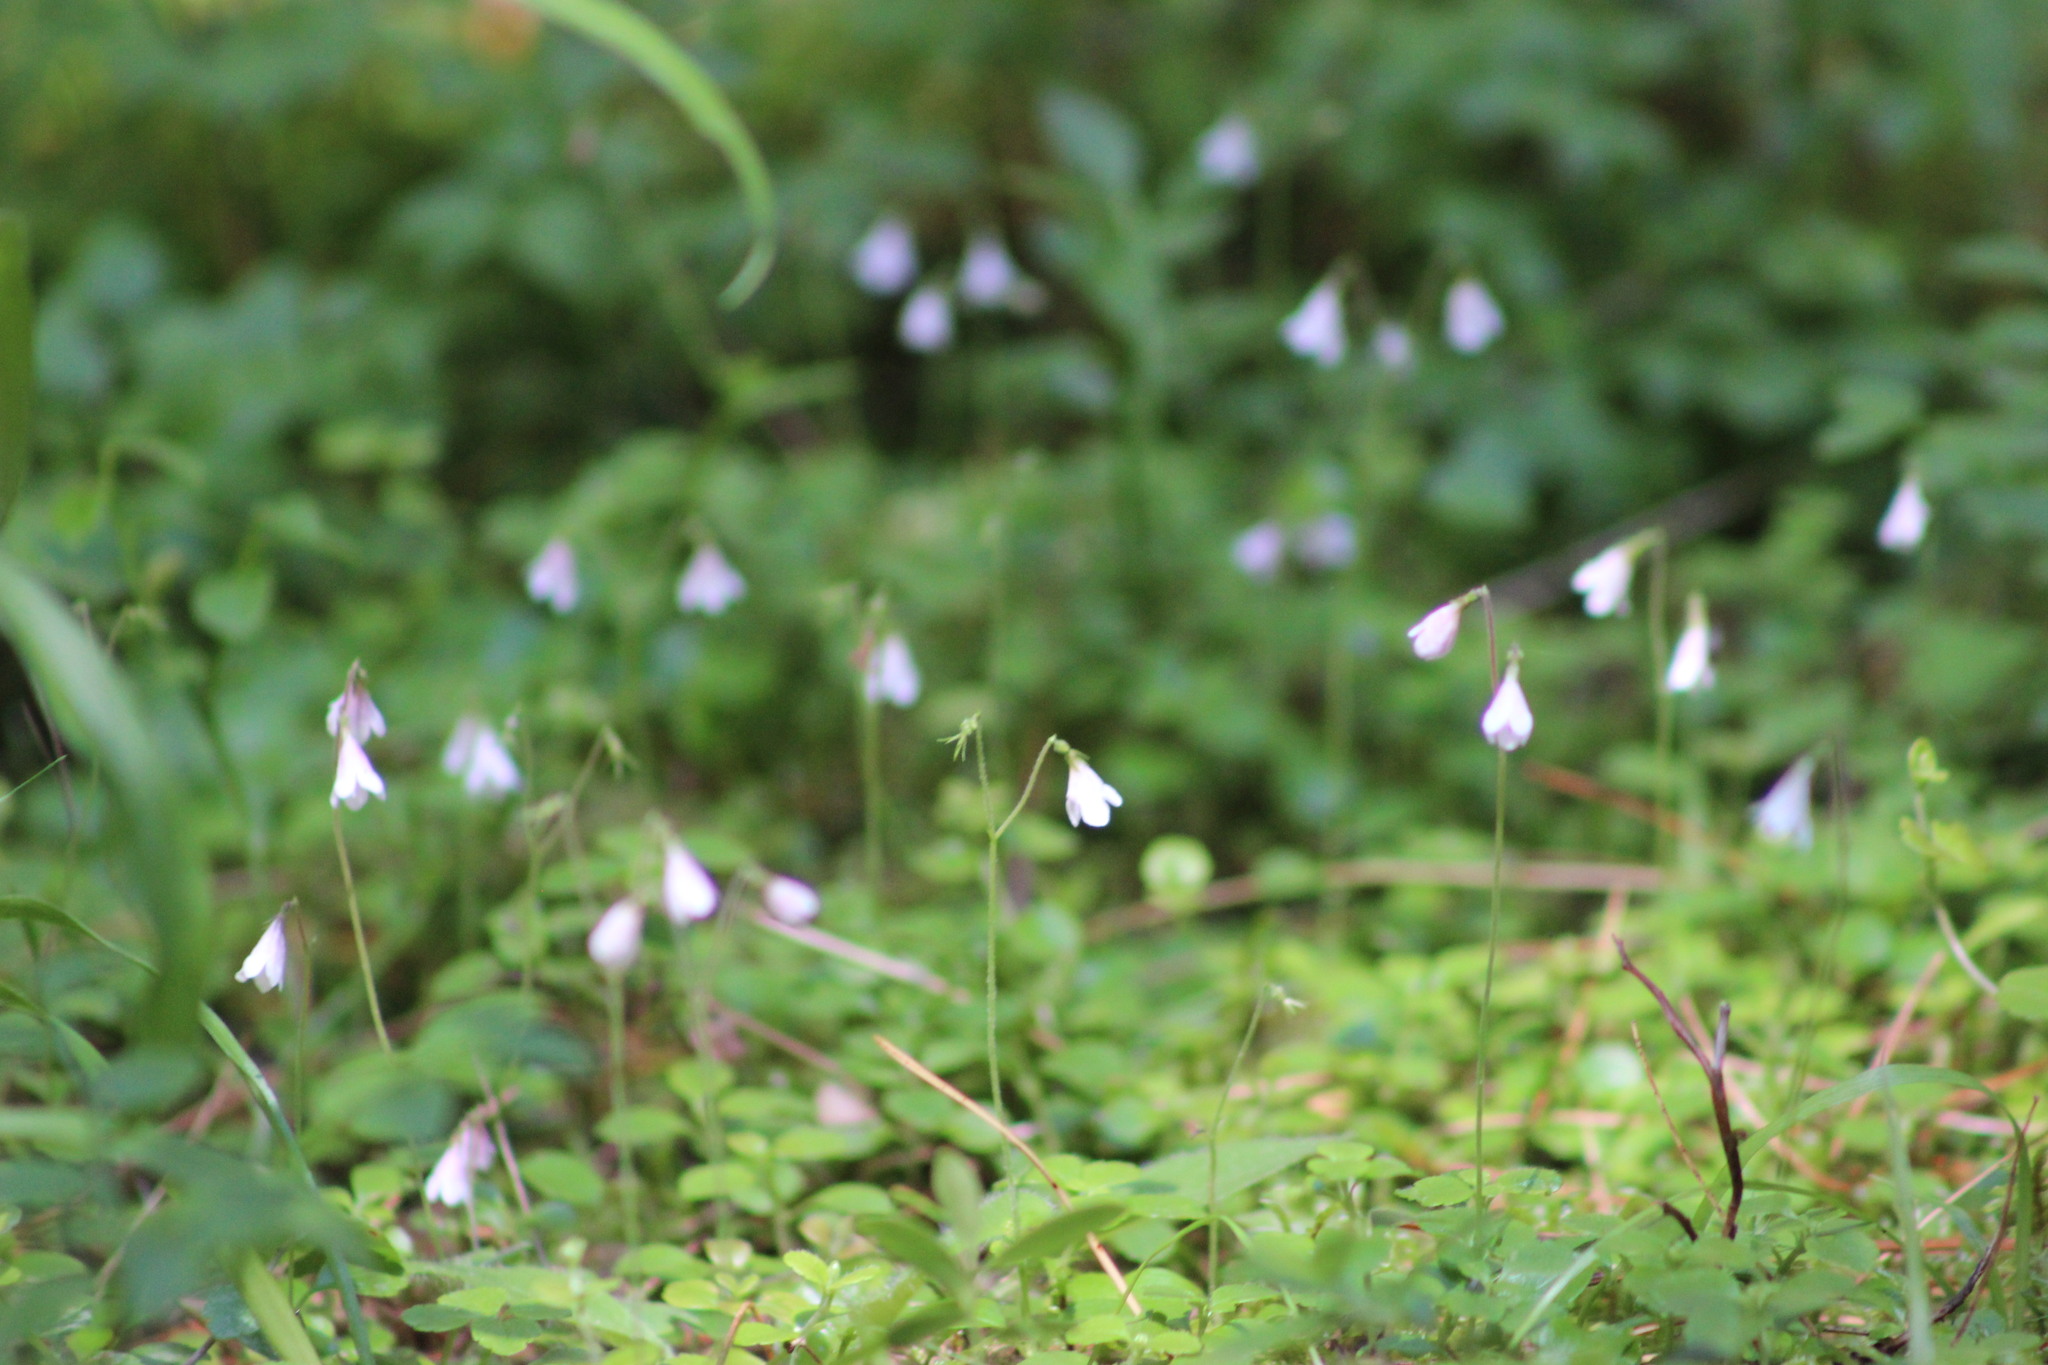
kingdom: Plantae
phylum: Tracheophyta
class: Magnoliopsida
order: Dipsacales
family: Caprifoliaceae
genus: Linnaea
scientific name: Linnaea borealis
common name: Twinflower
